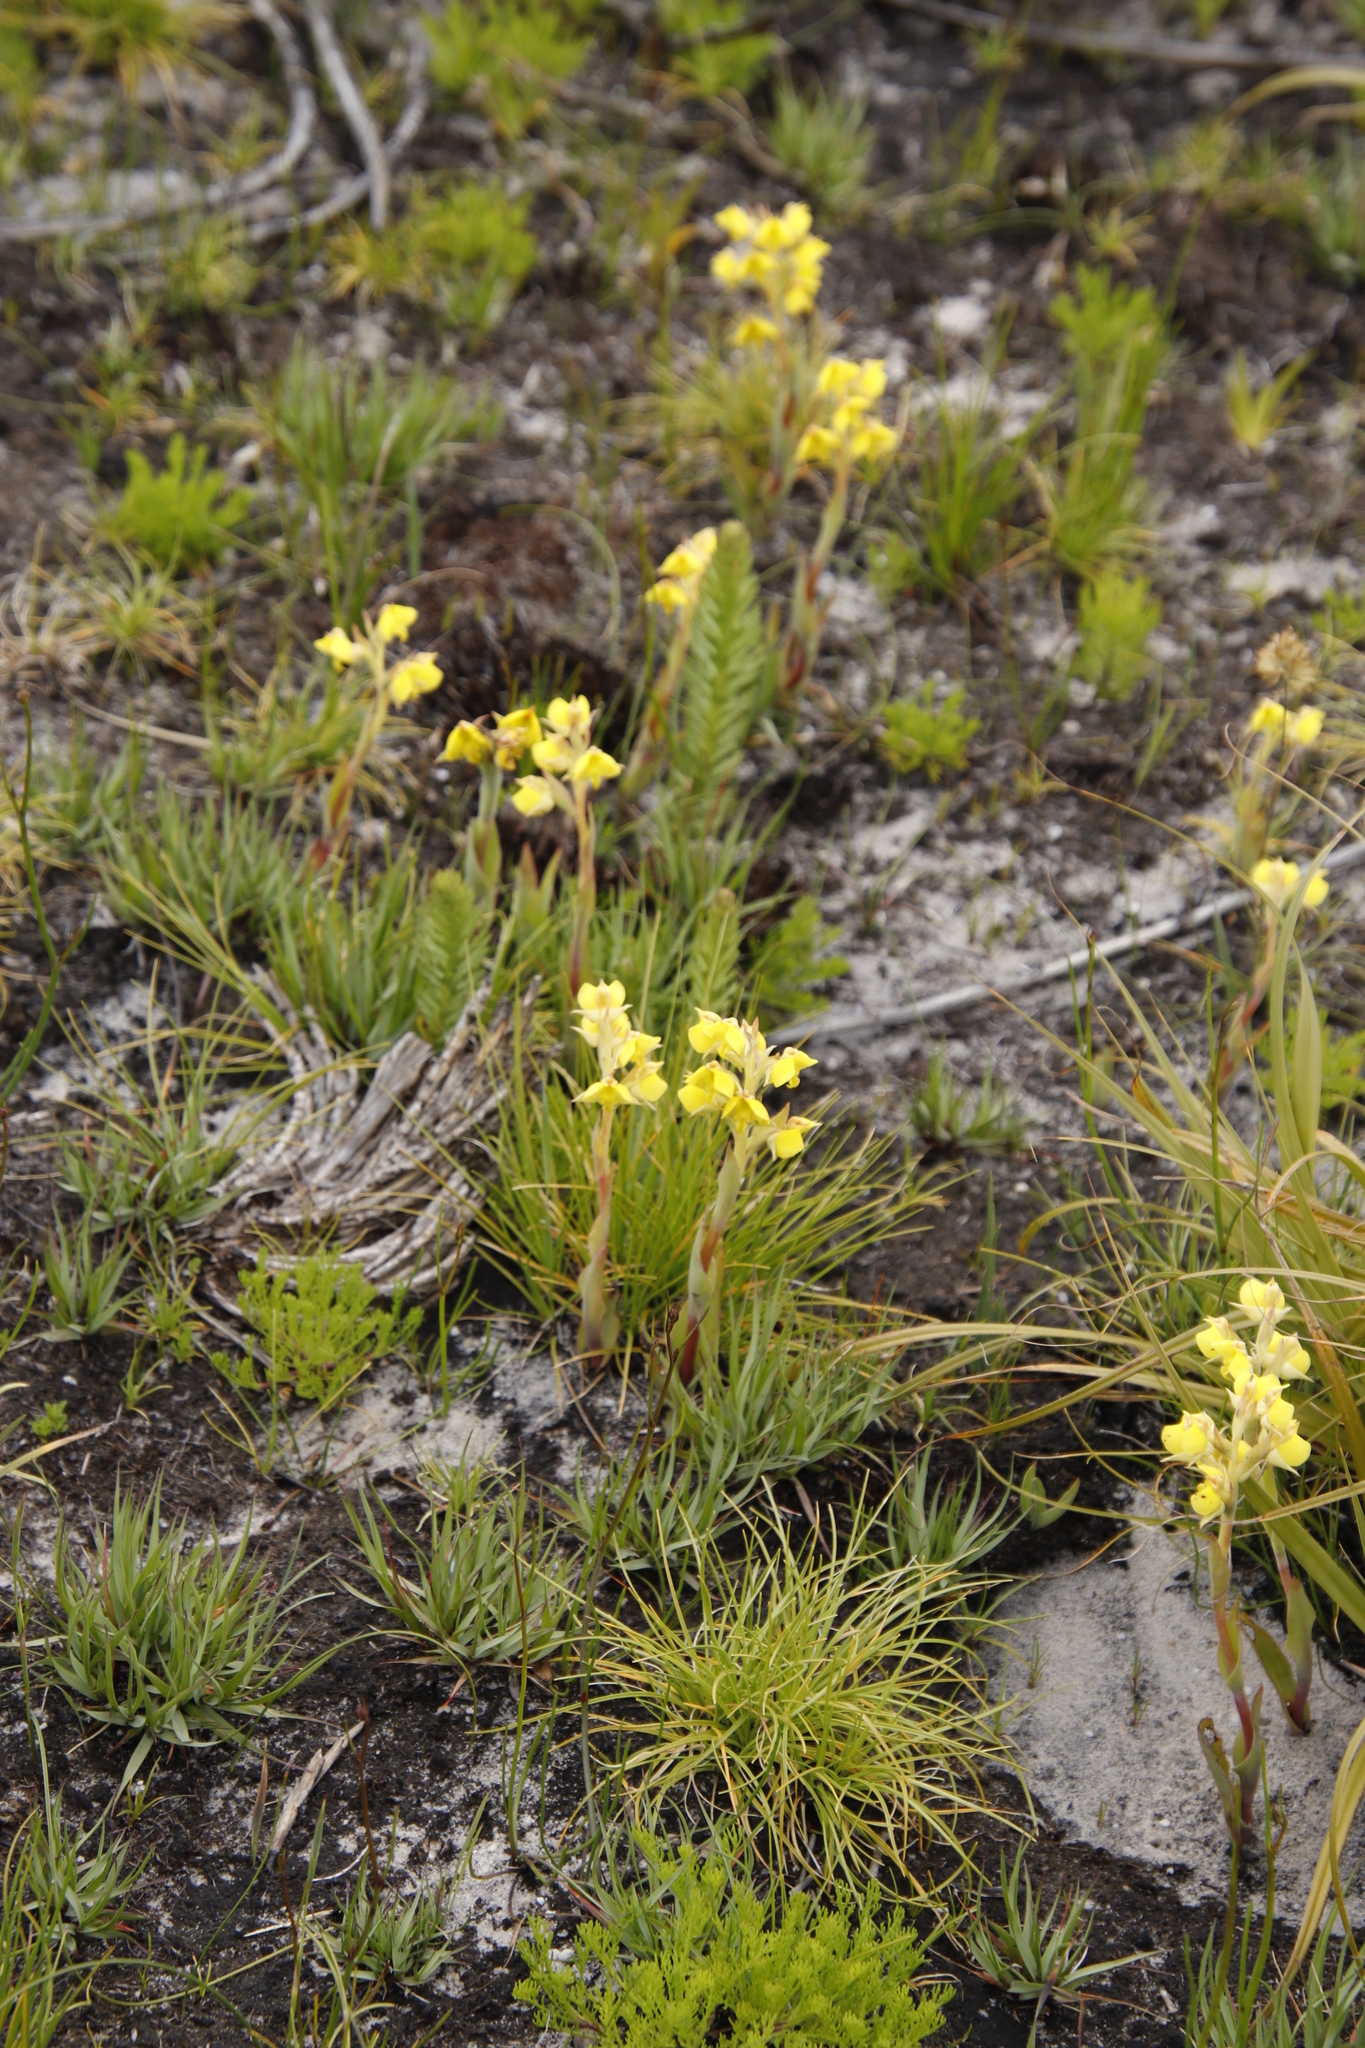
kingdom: Plantae
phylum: Tracheophyta
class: Liliopsida
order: Asparagales
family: Orchidaceae
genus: Pterygodium
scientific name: Pterygodium acutifolium
